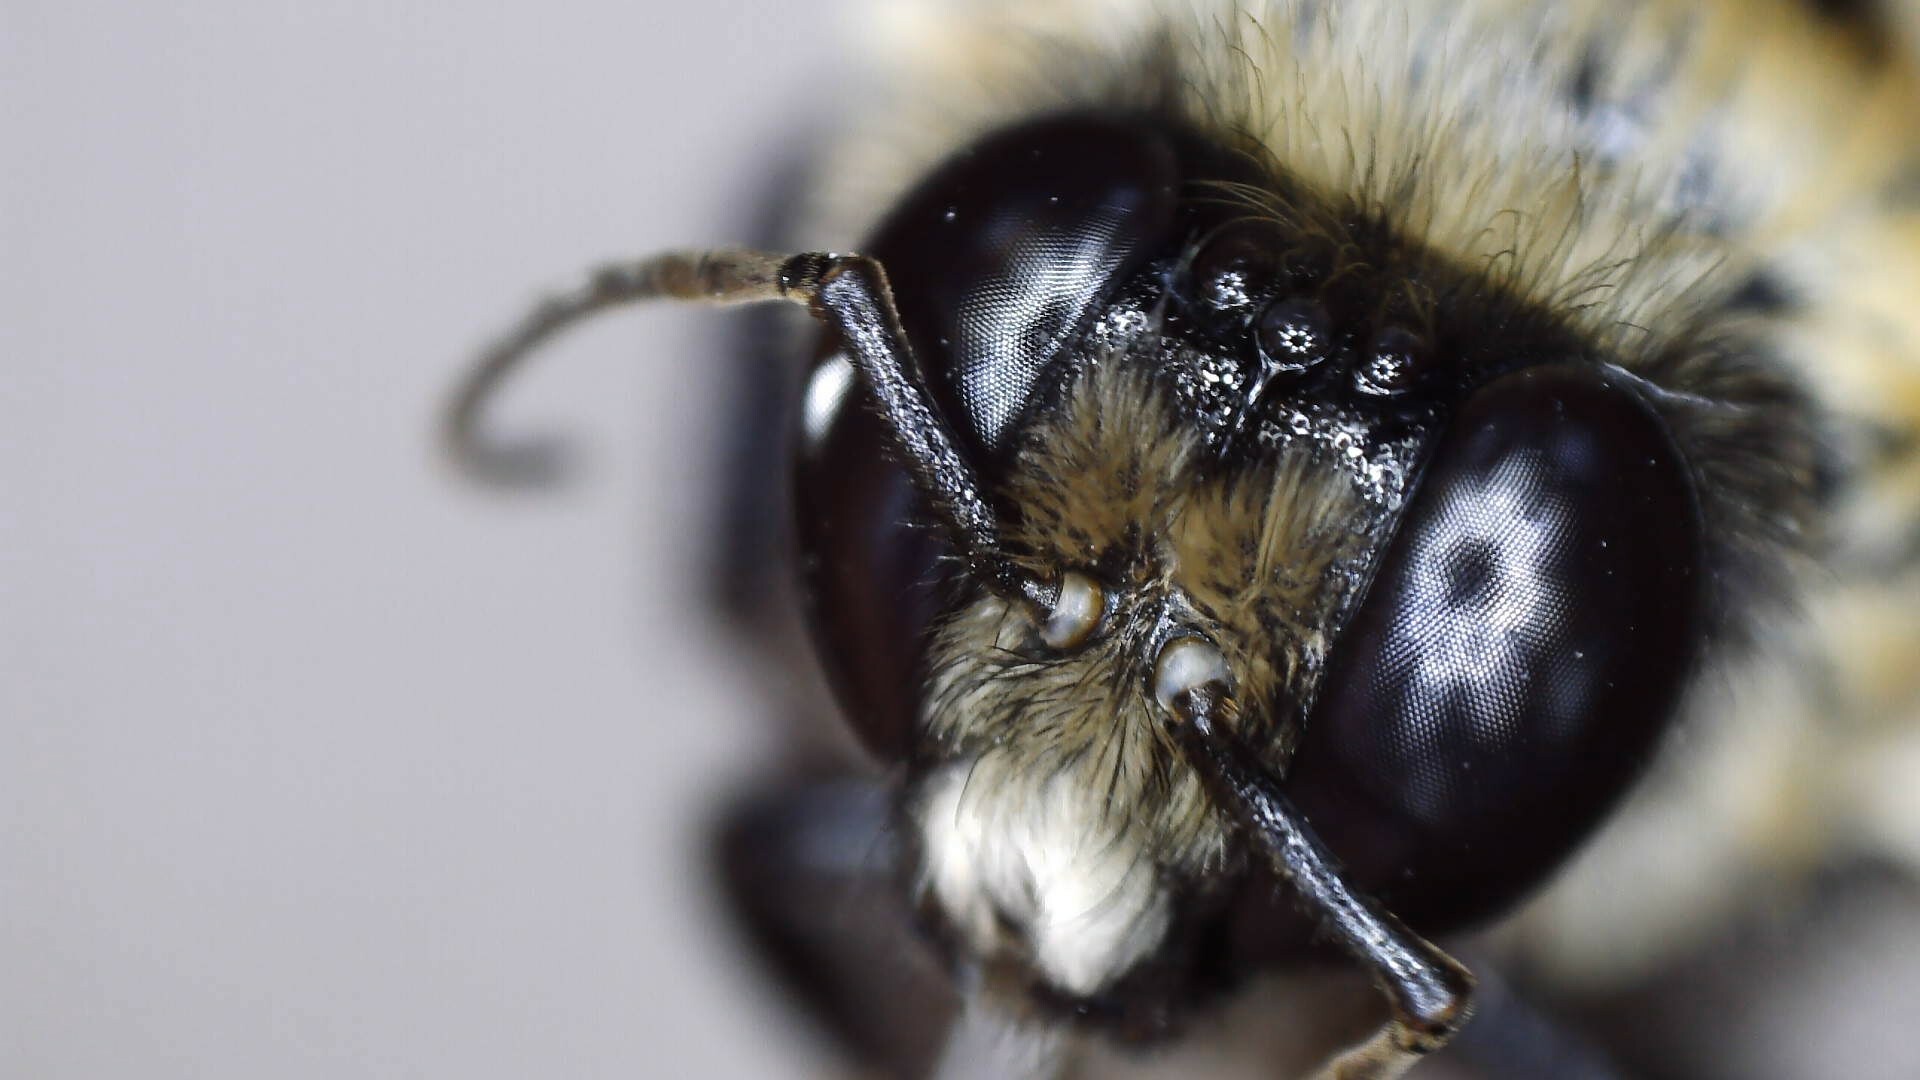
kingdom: Animalia
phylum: Arthropoda
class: Insecta
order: Hymenoptera
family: Apidae
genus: Bombus
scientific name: Bombus griseocollis
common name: Brown-belted bumble bee
